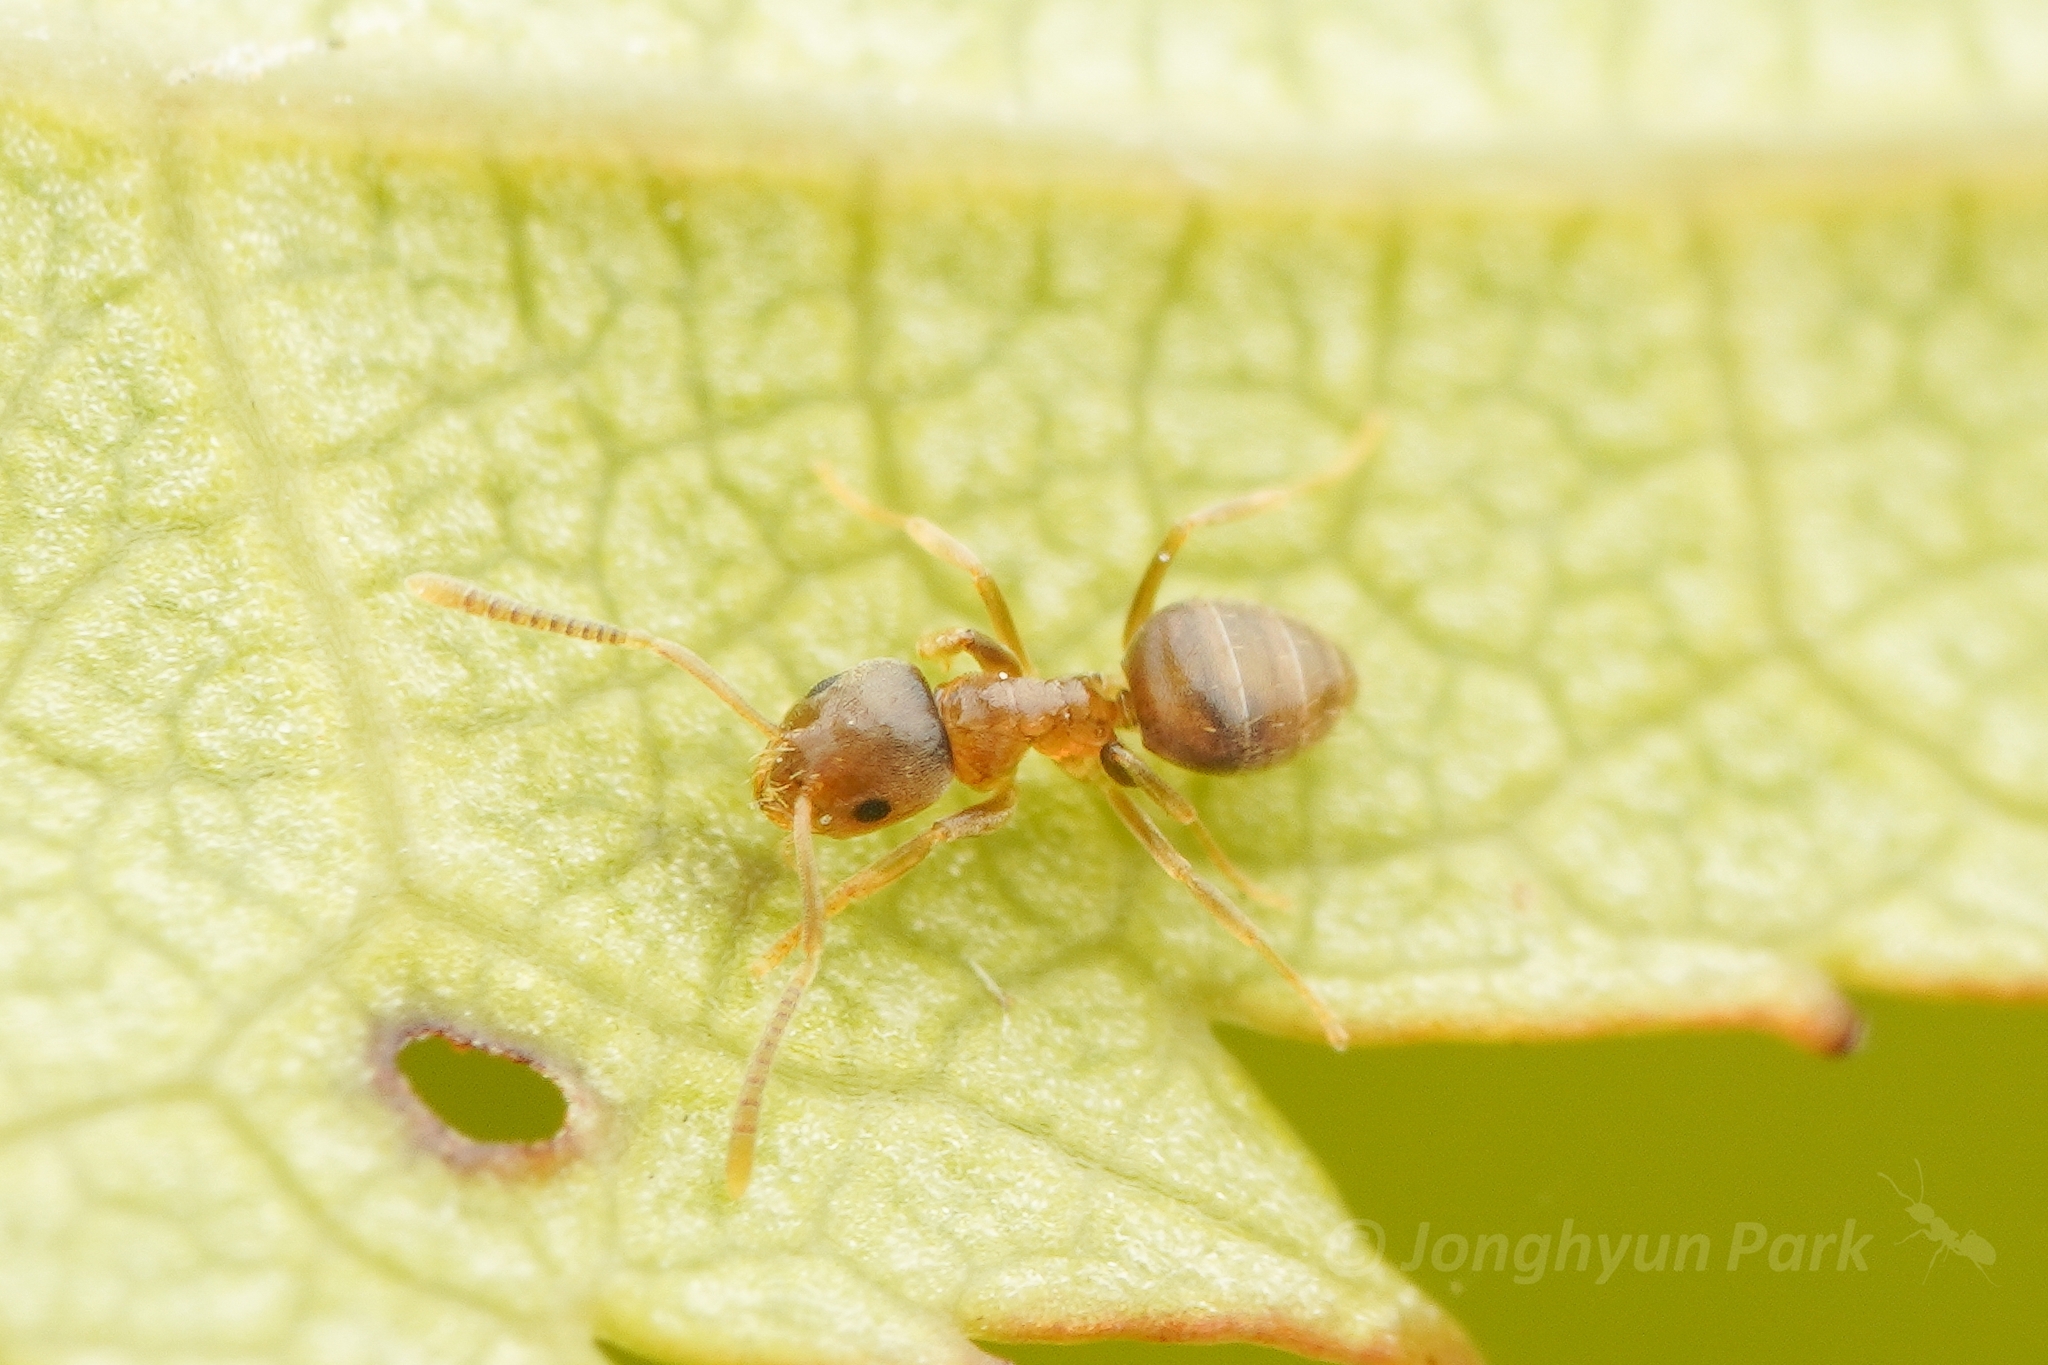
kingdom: Animalia
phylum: Arthropoda
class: Insecta
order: Hymenoptera
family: Formicidae
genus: Paraparatrechina
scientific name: Paraparatrechina
